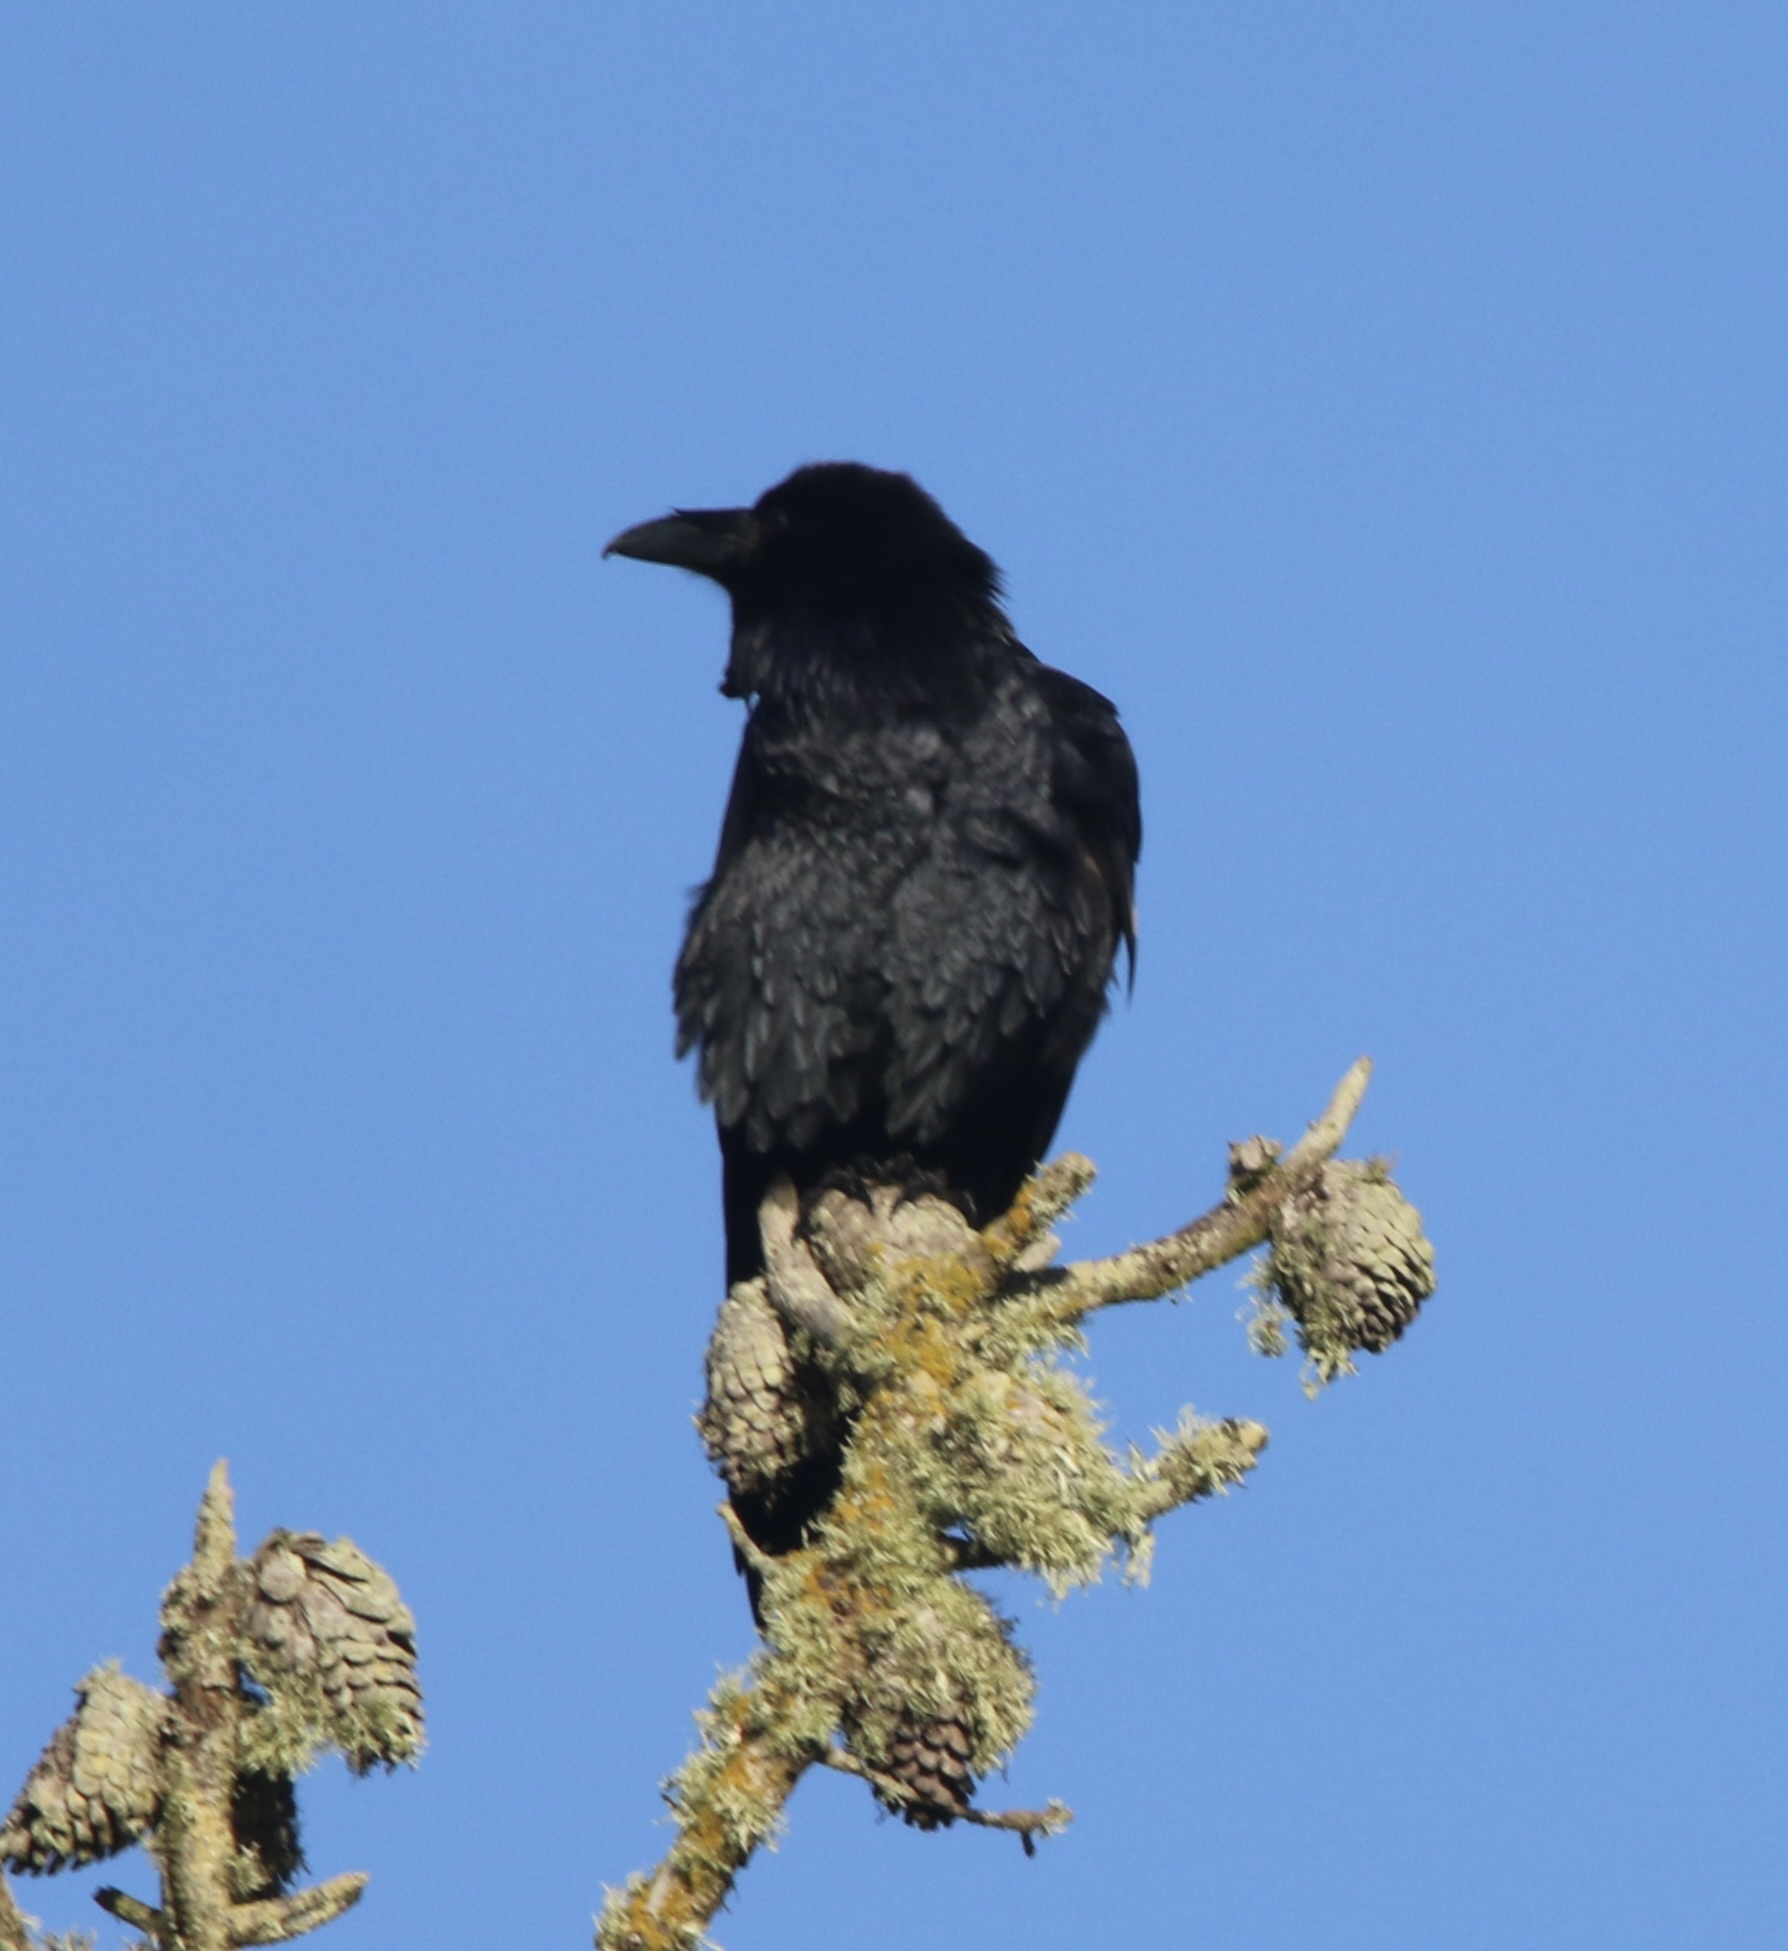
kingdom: Animalia
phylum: Chordata
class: Aves
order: Passeriformes
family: Corvidae
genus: Corvus
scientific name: Corvus corax
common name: Common raven
